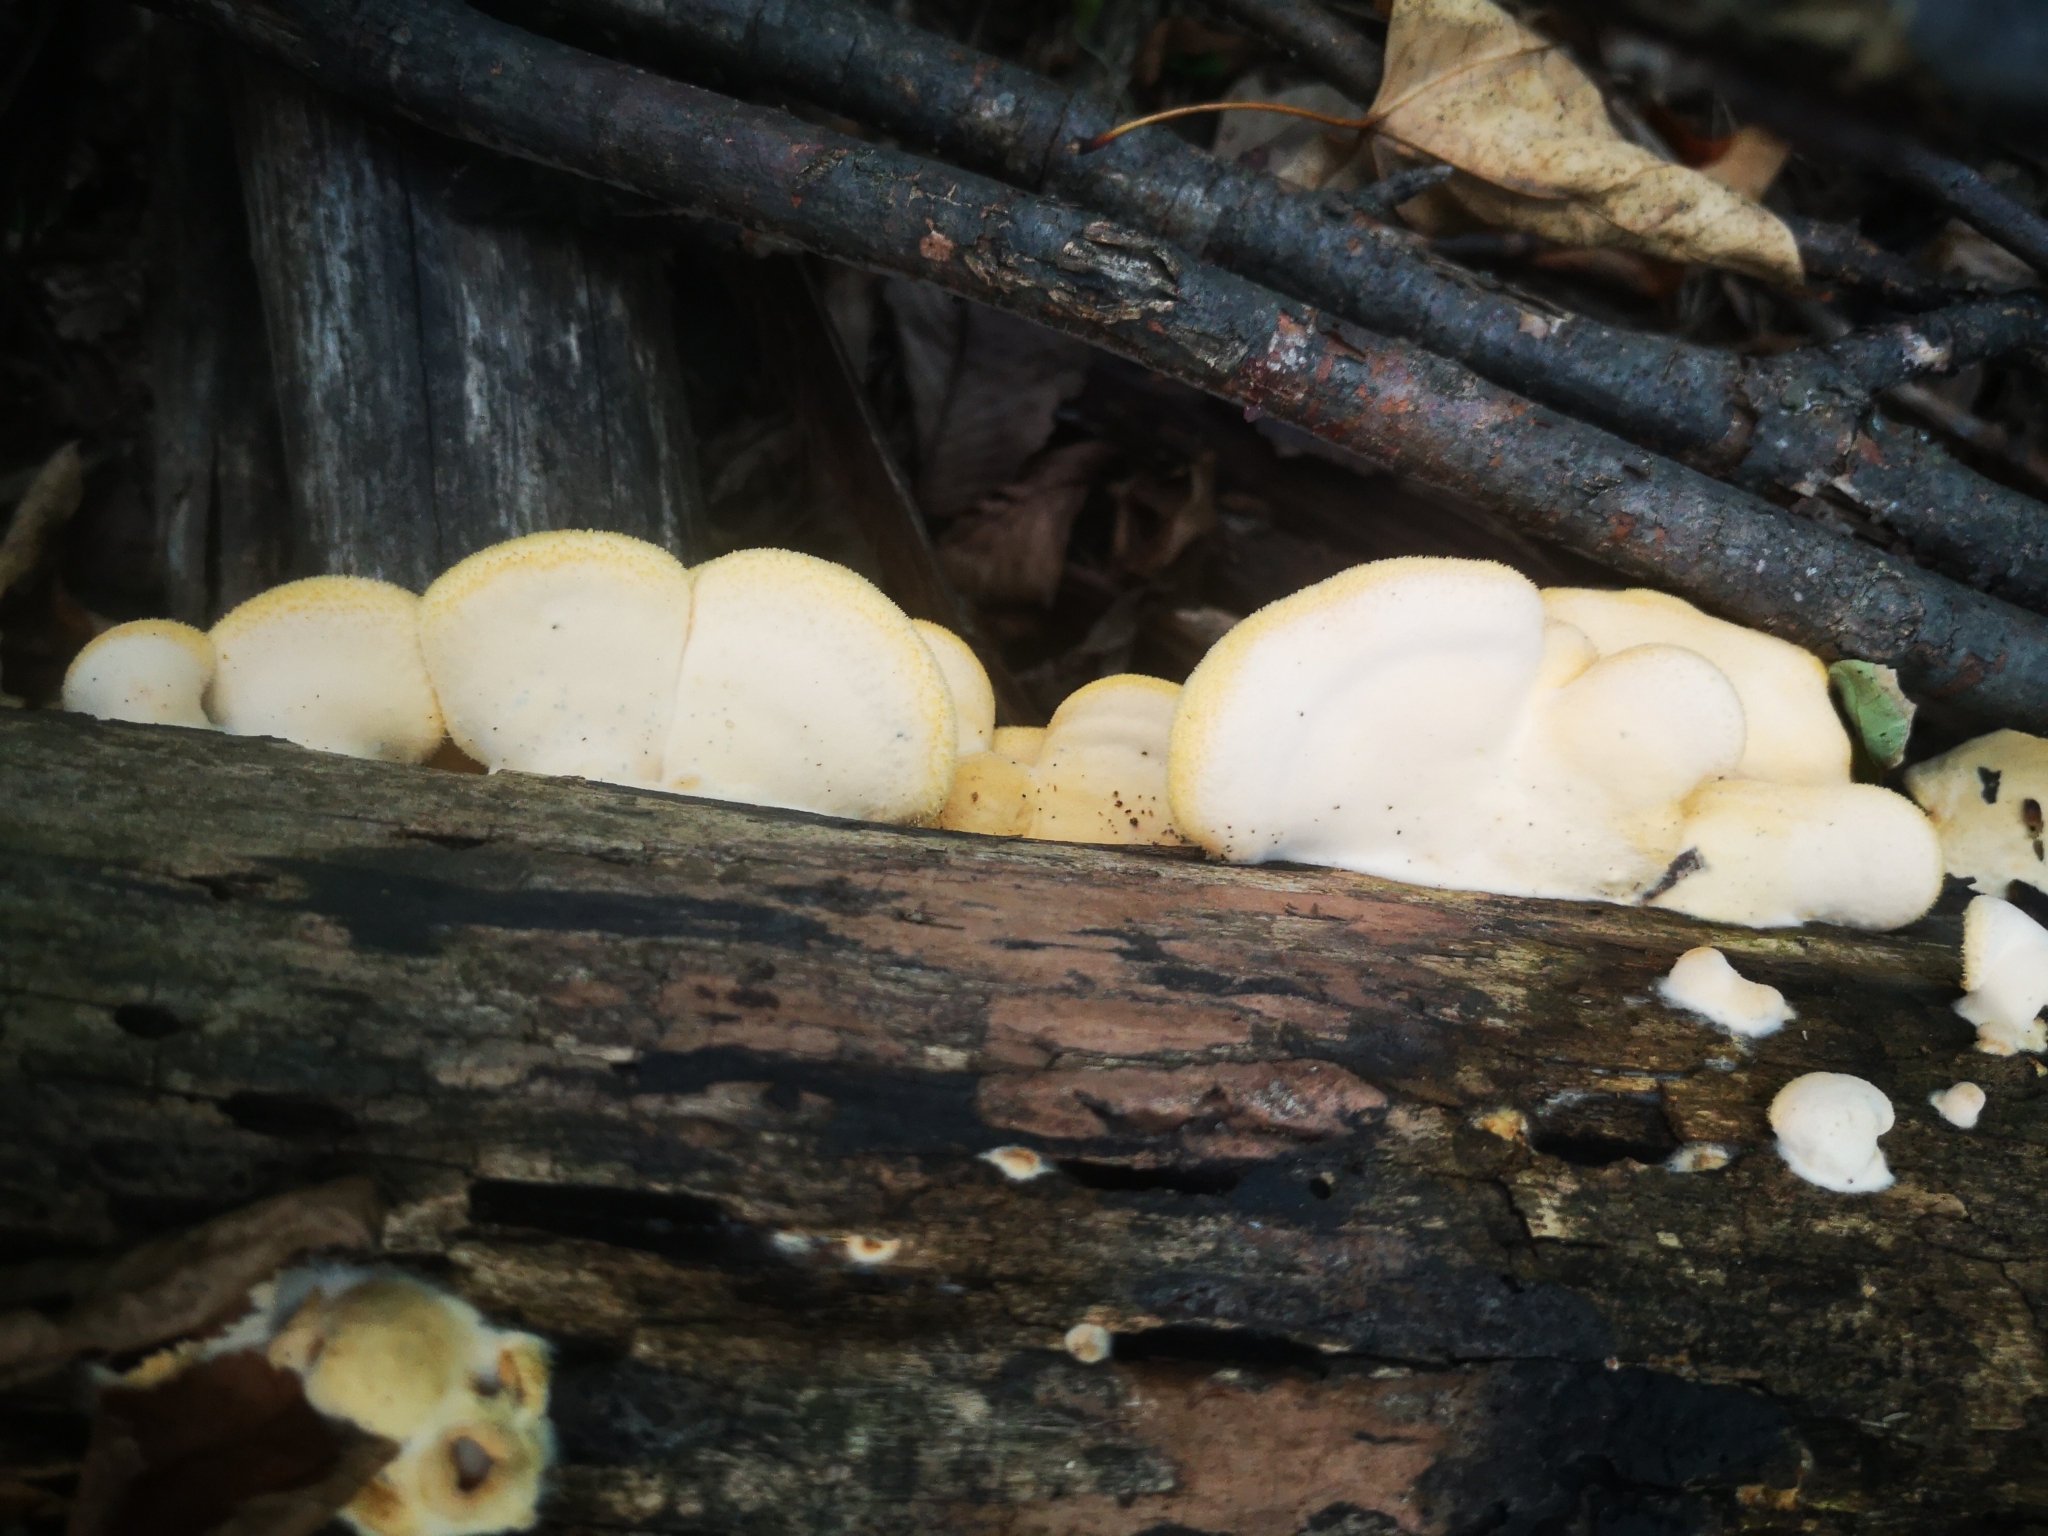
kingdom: Fungi
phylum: Basidiomycota
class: Agaricomycetes
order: Agaricales
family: Phyllotopsidaceae
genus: Phyllotopsis
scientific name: Phyllotopsis nidulans
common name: Orange mock oyster
